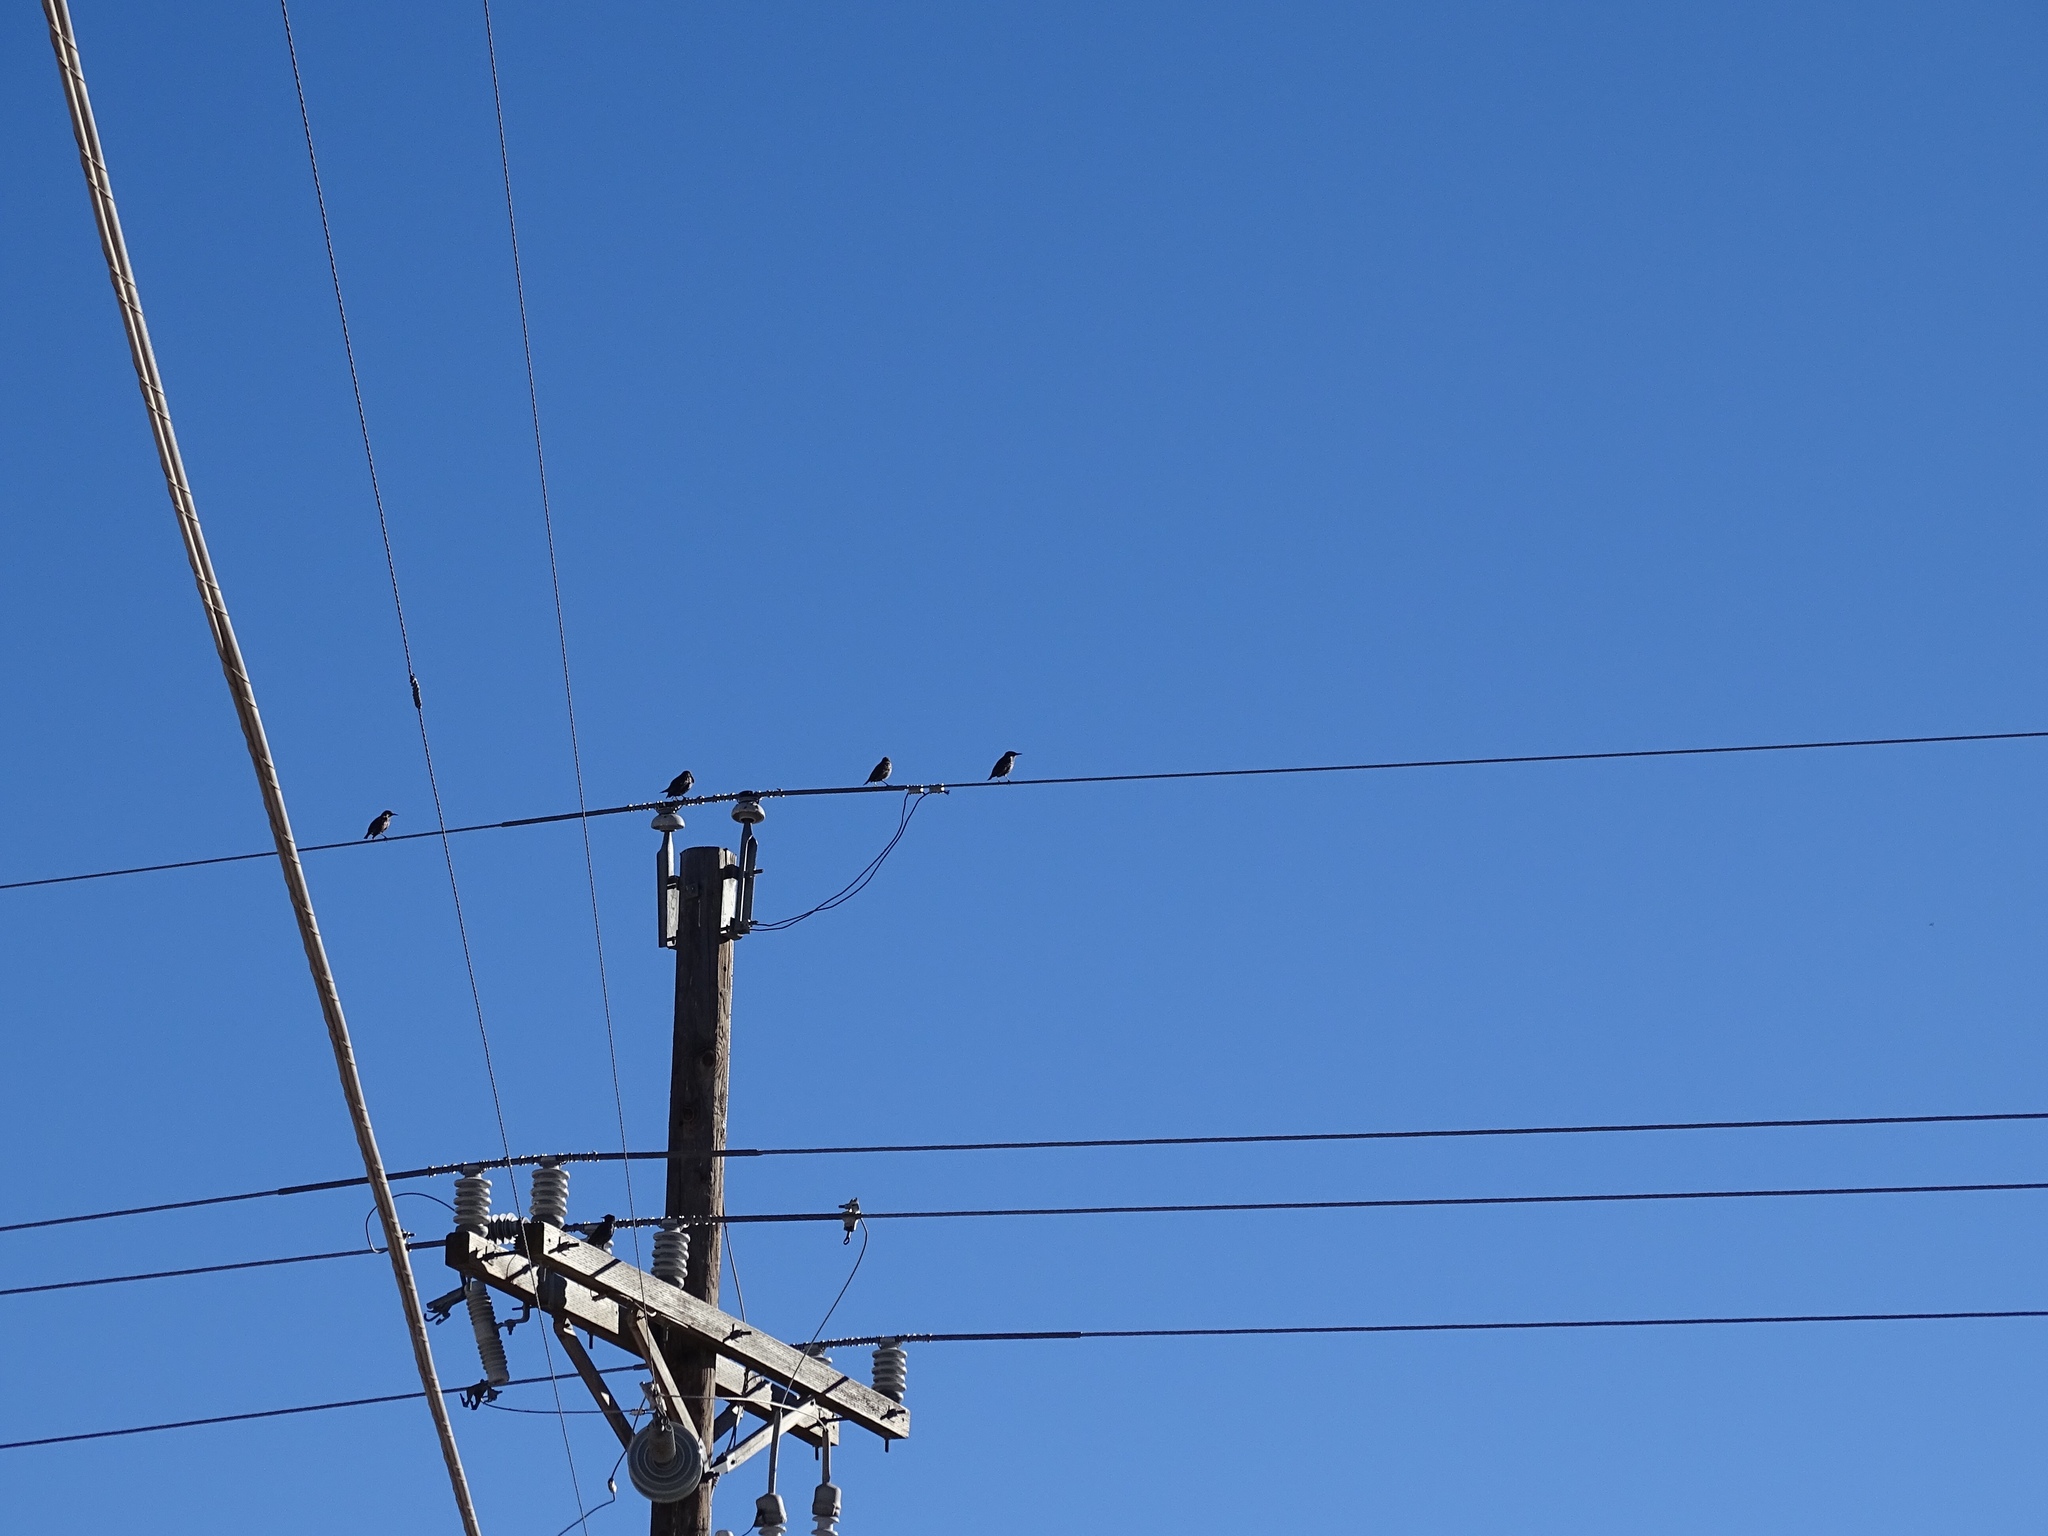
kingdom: Animalia
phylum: Chordata
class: Aves
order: Passeriformes
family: Sturnidae
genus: Sturnus
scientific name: Sturnus vulgaris
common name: Common starling
